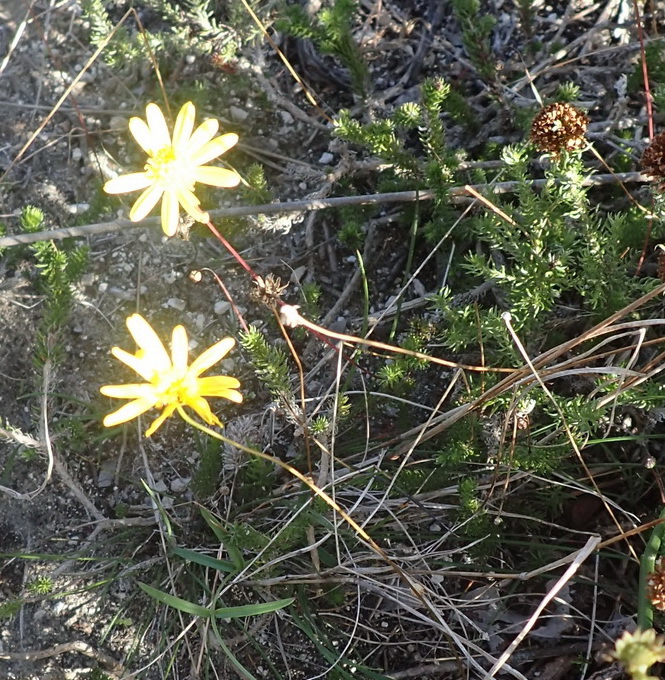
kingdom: Plantae
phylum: Tracheophyta
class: Magnoliopsida
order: Asterales
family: Asteraceae
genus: Euryops
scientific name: Euryops ericoides
